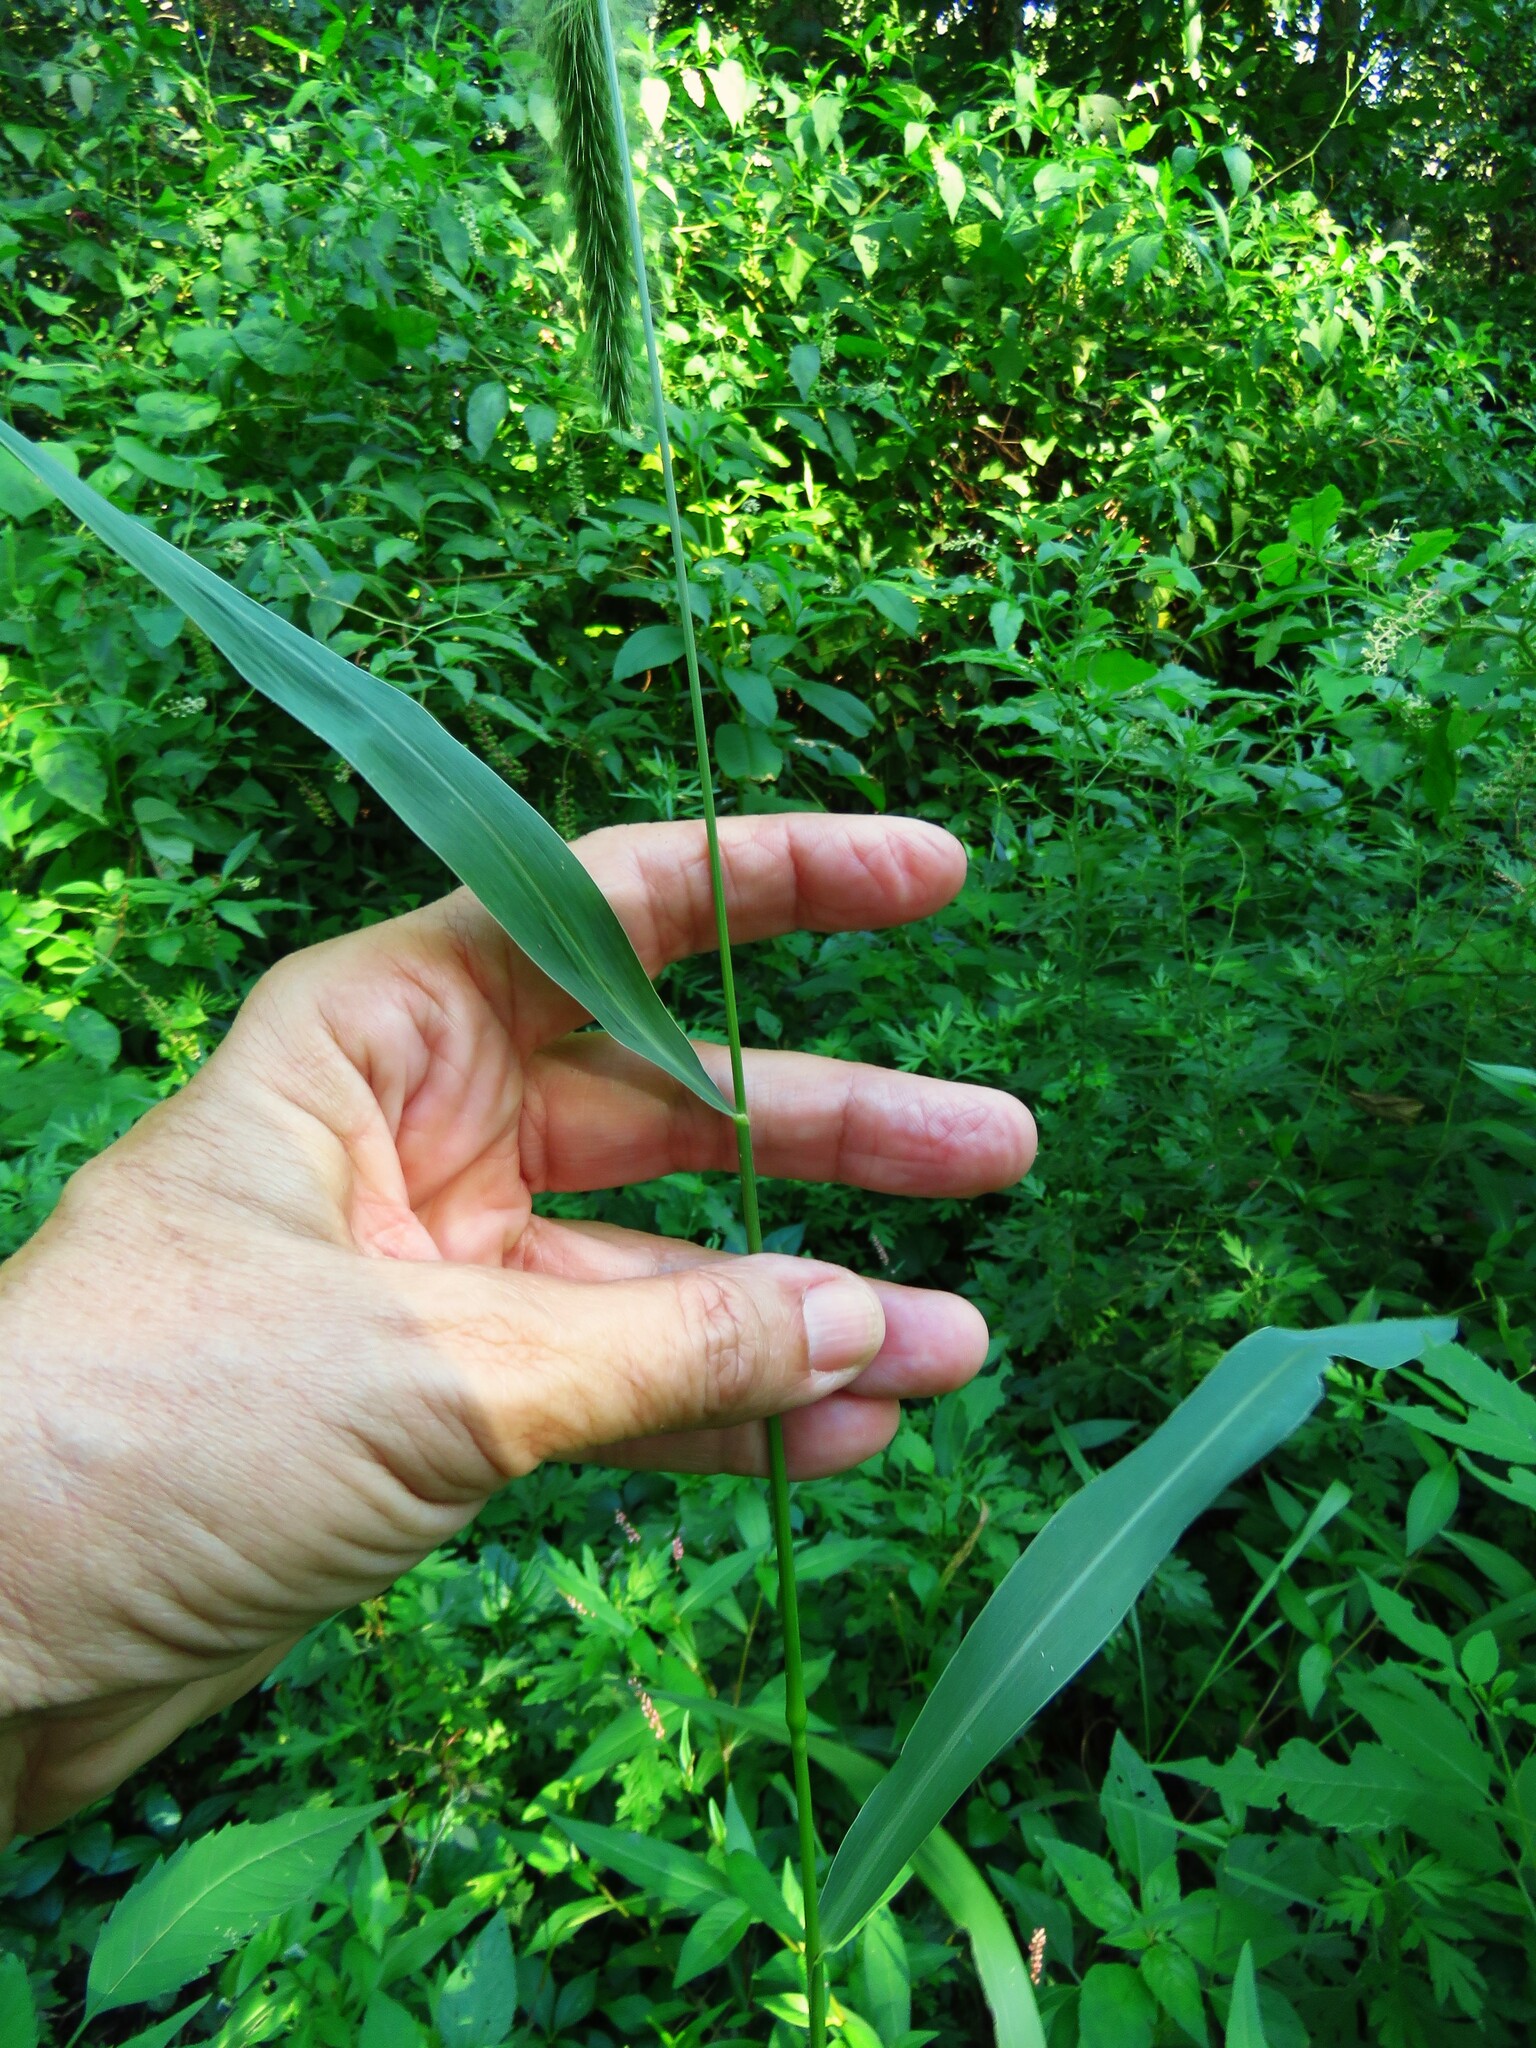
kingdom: Plantae
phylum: Tracheophyta
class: Liliopsida
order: Poales
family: Poaceae
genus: Setaria
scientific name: Setaria faberi
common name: Nodding bristle-grass
